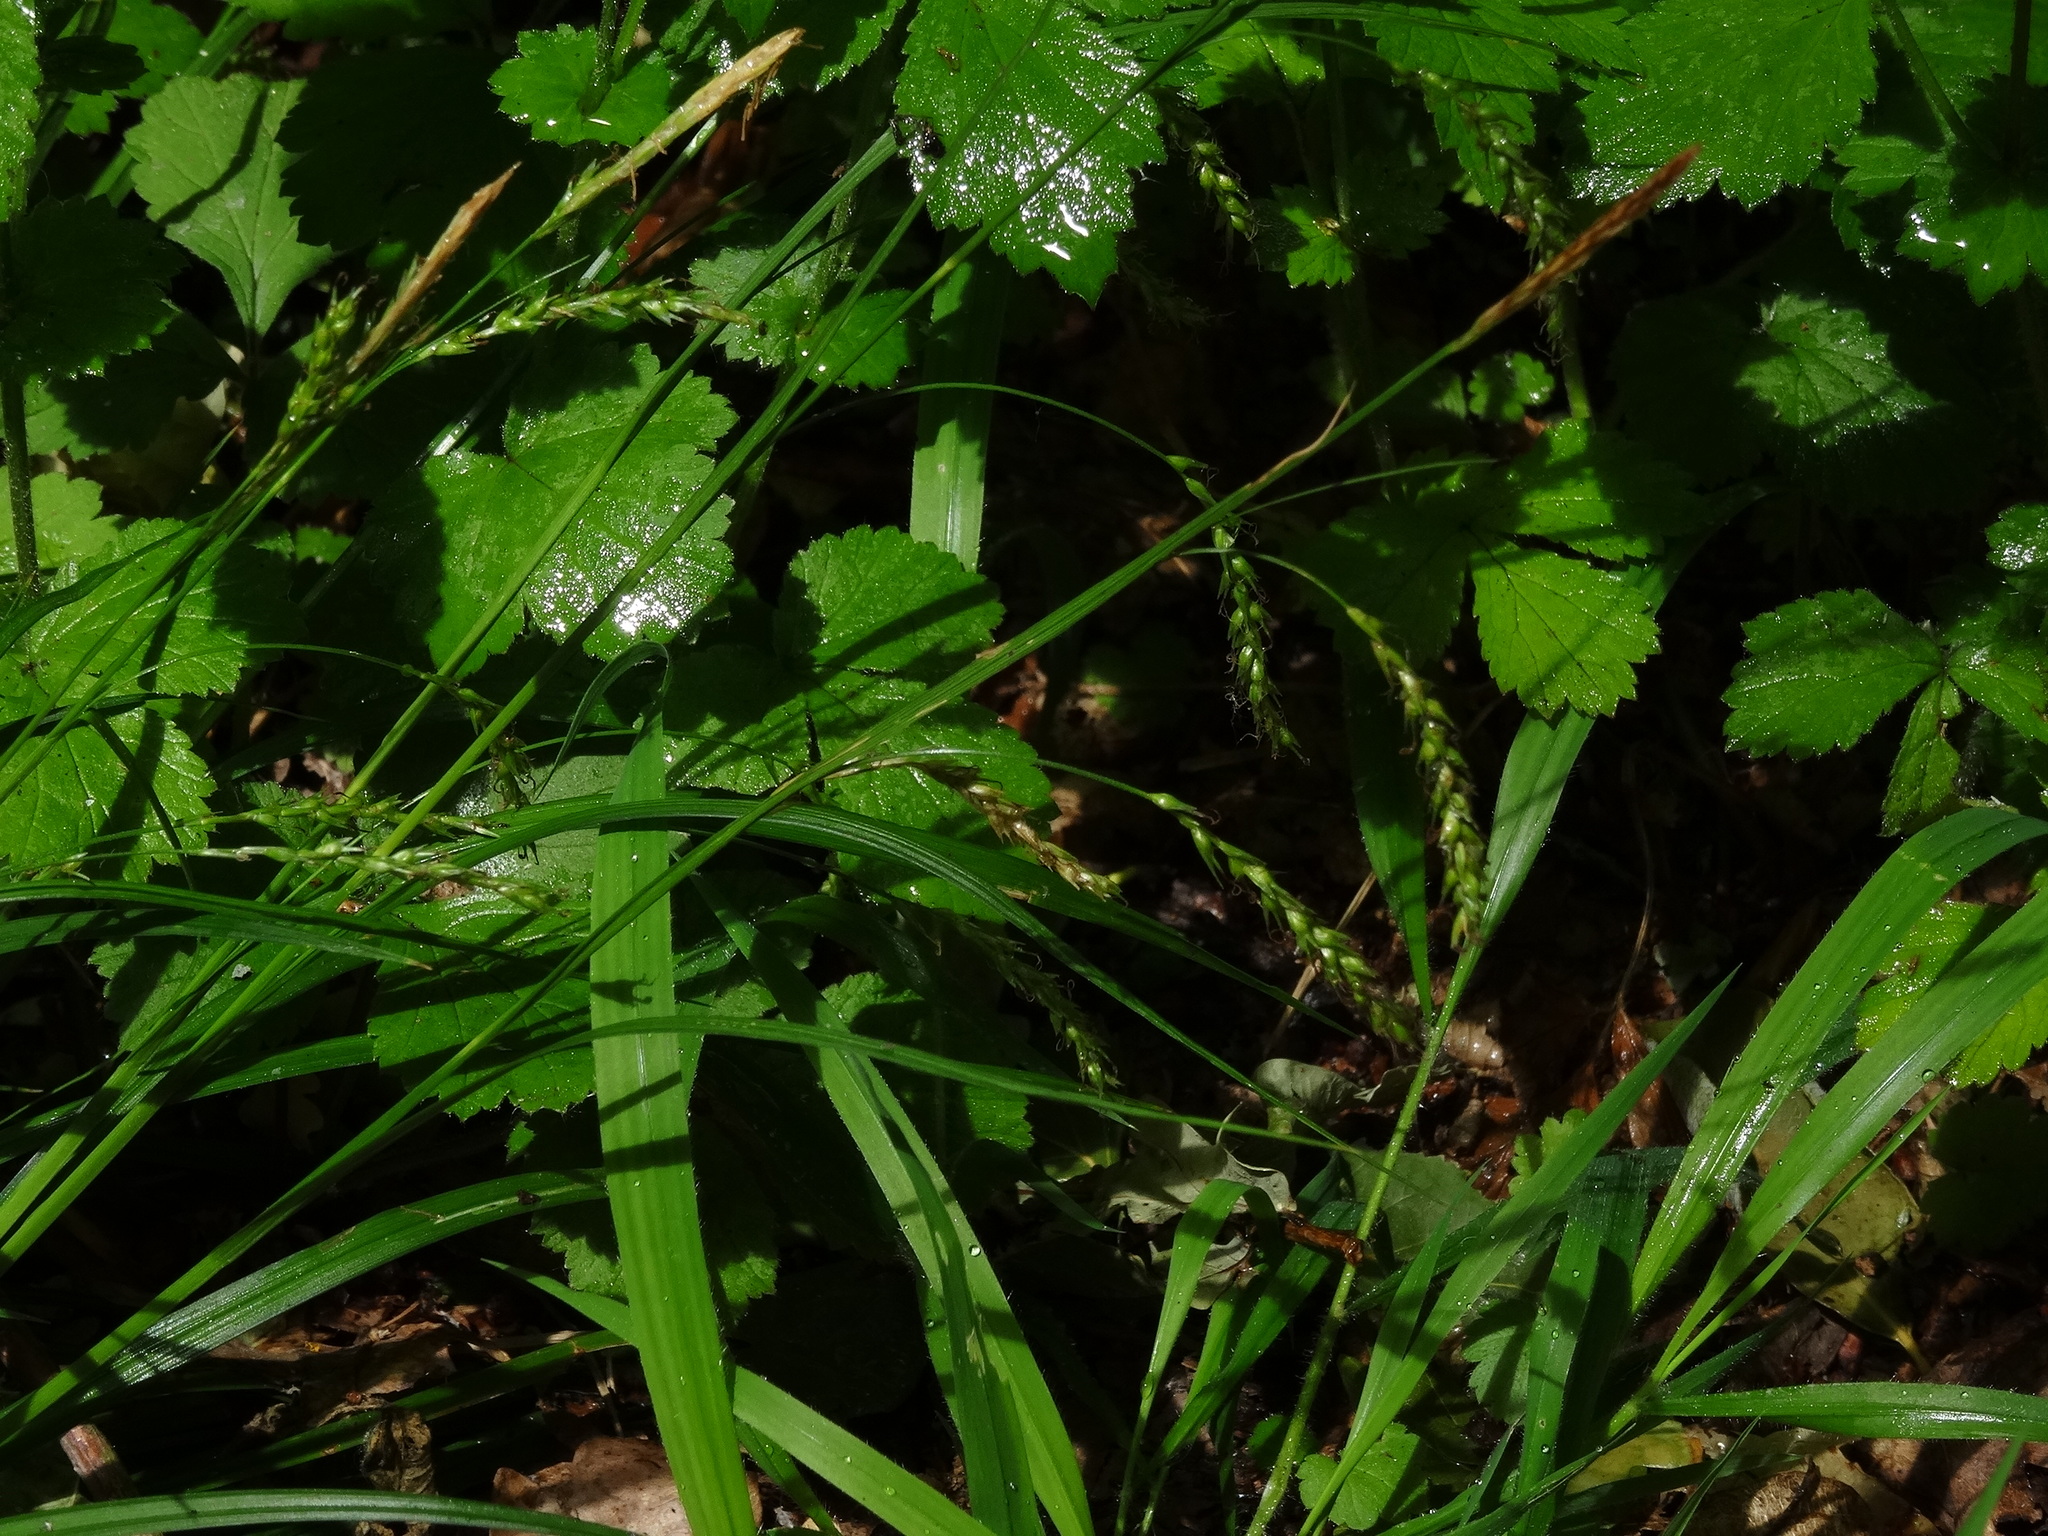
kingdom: Plantae
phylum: Tracheophyta
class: Liliopsida
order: Poales
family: Cyperaceae
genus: Carex
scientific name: Carex sylvatica
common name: Wood-sedge
